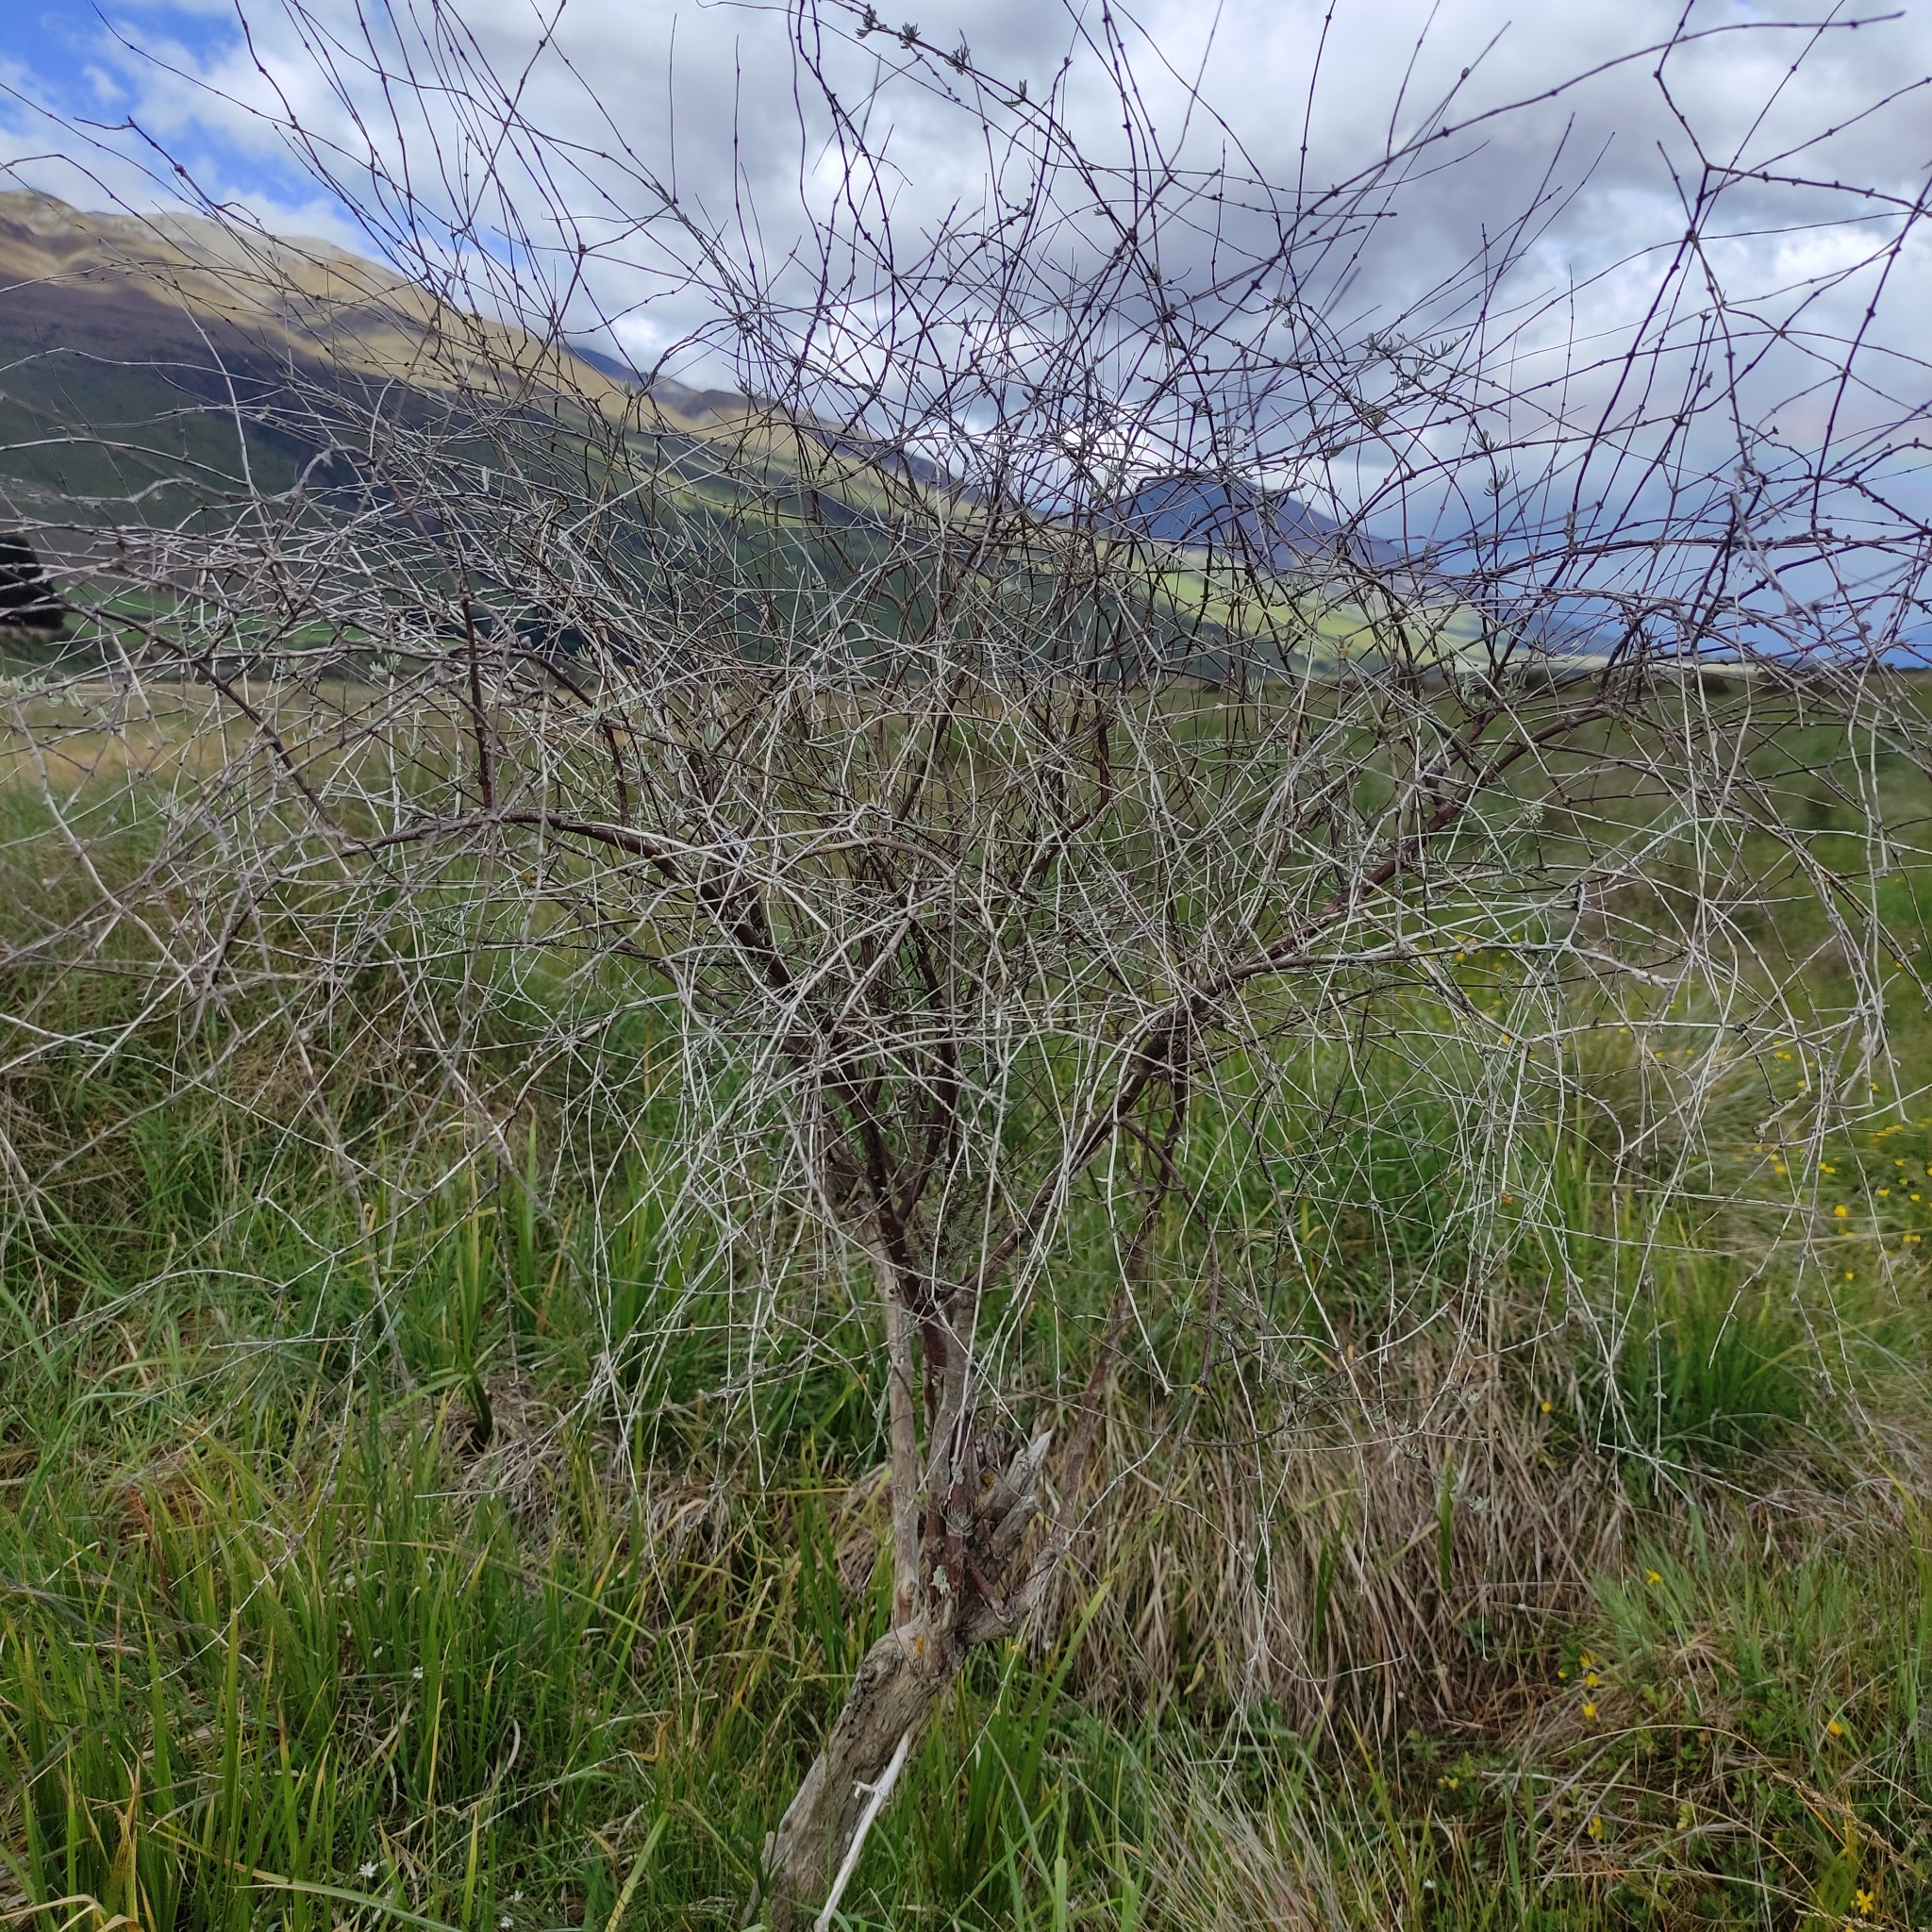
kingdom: Plantae
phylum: Tracheophyta
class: Magnoliopsida
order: Asterales
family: Asteraceae
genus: Olearia
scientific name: Olearia lineata
